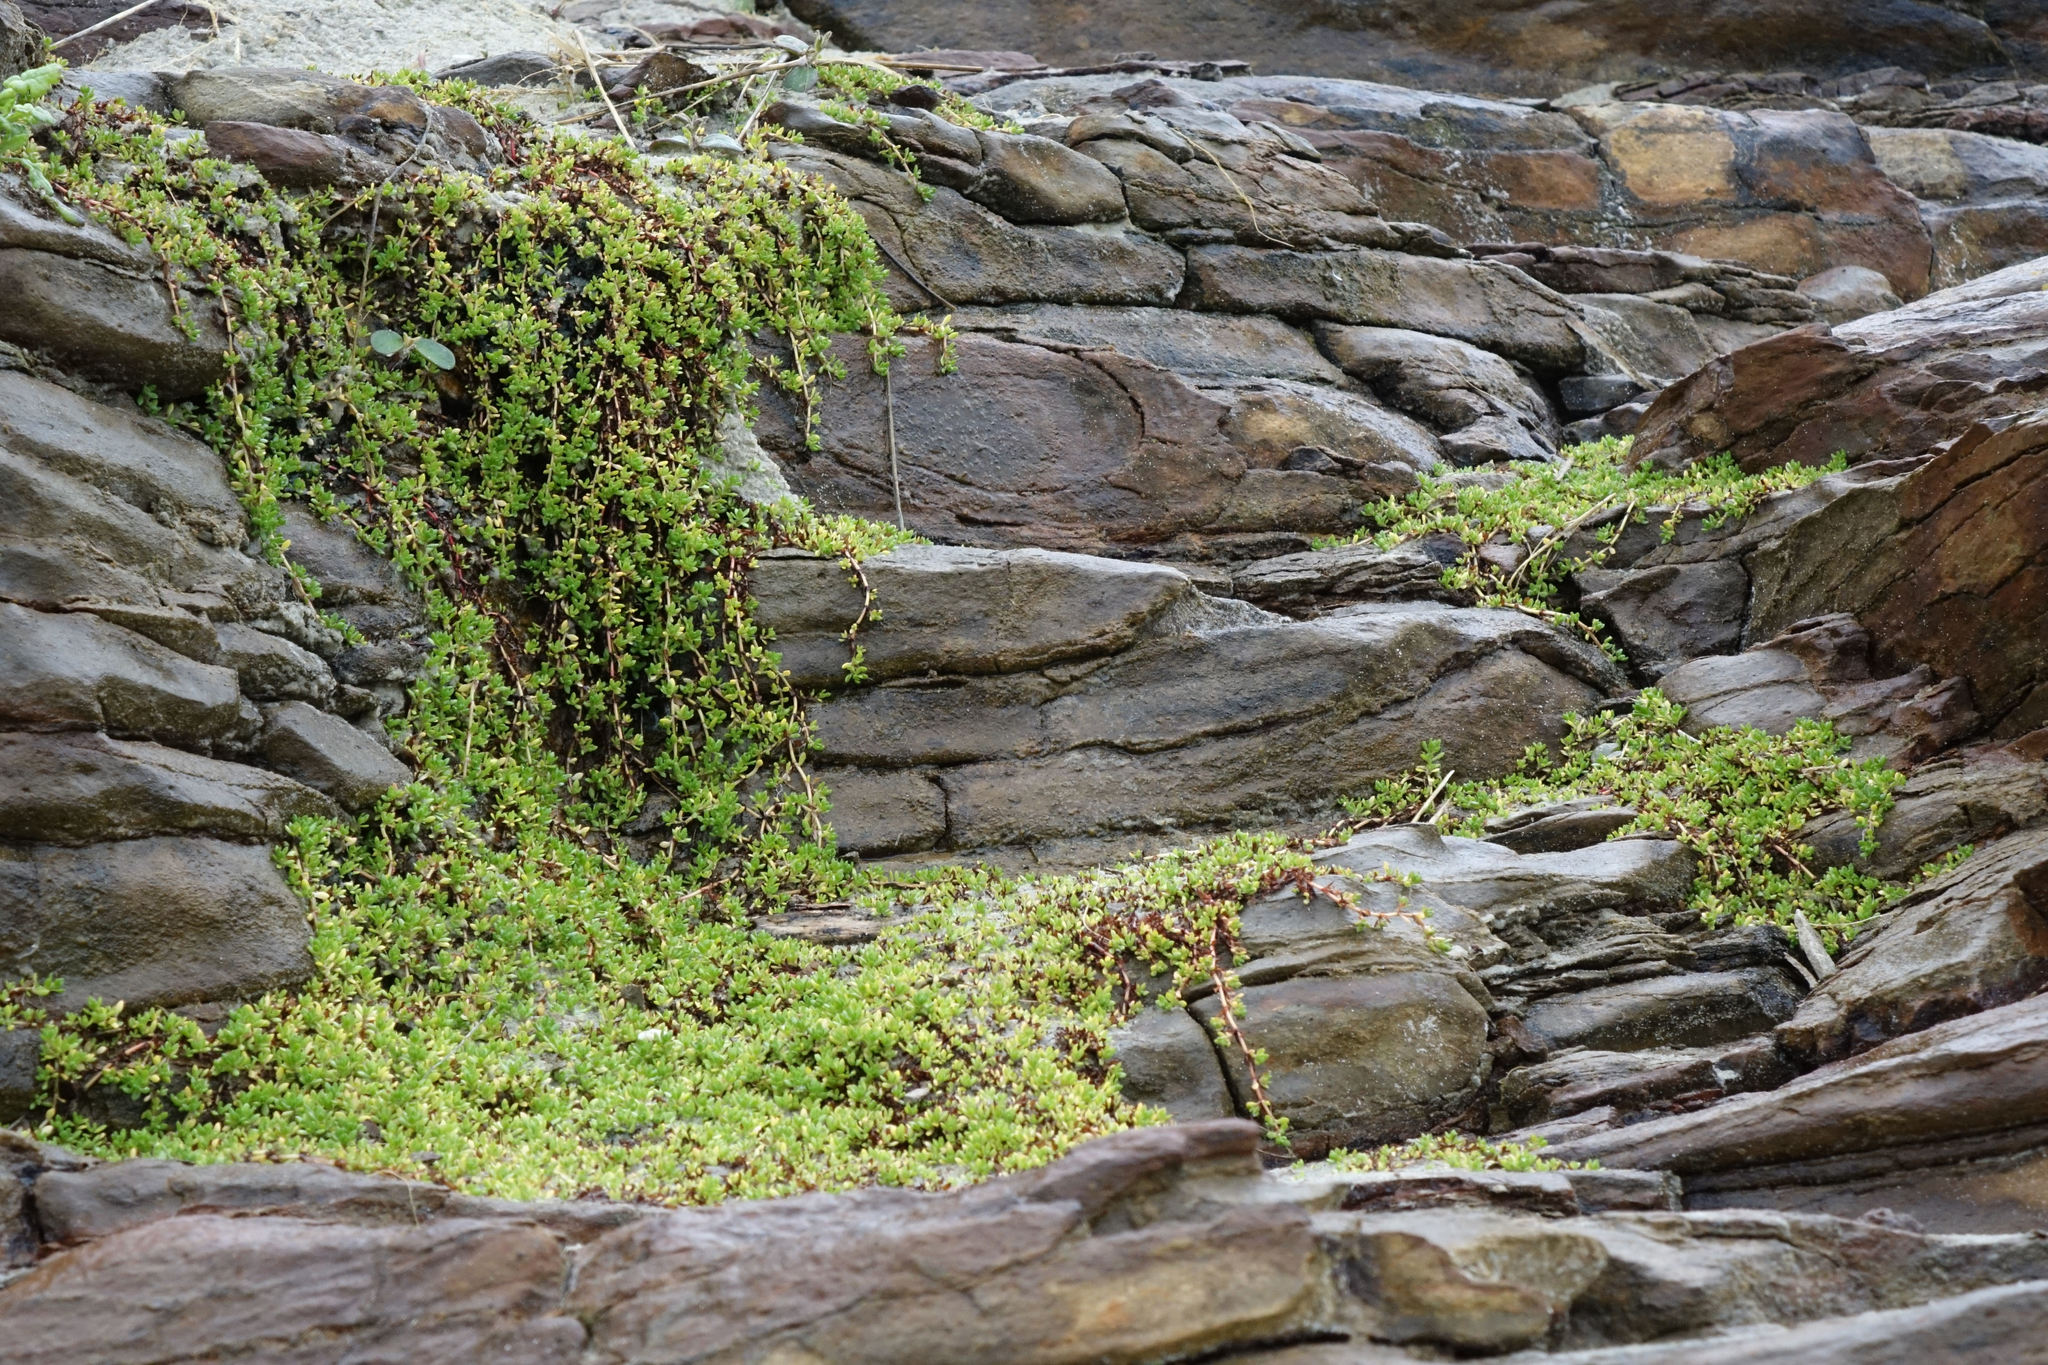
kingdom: Plantae
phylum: Tracheophyta
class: Magnoliopsida
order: Saxifragales
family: Crassulaceae
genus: Crassula
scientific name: Crassula moschata
